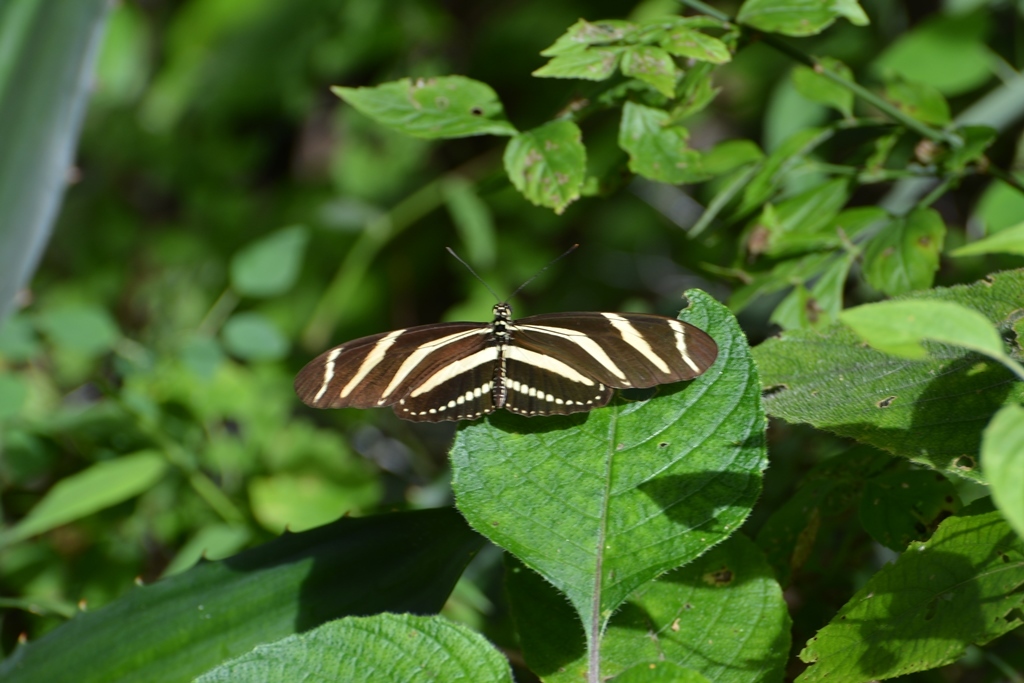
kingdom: Animalia
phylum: Arthropoda
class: Insecta
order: Lepidoptera
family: Nymphalidae
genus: Heliconius
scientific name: Heliconius charithonia
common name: Zebra long wing
